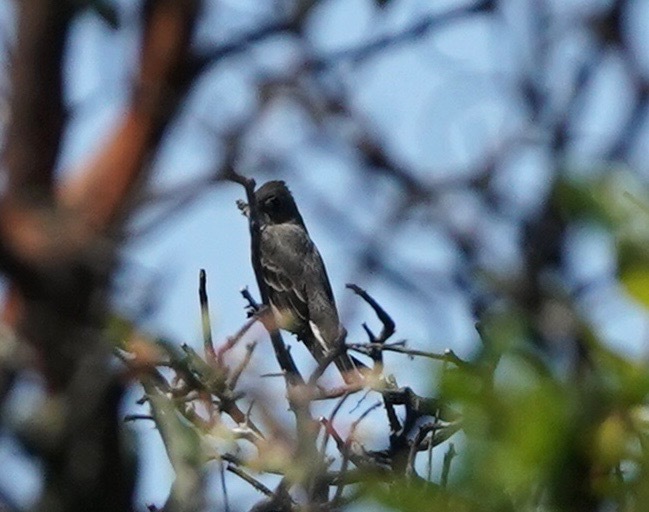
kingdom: Animalia
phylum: Chordata
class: Aves
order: Passeriformes
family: Tyrannidae
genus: Contopus
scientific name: Contopus sordidulus
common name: Western wood-pewee
